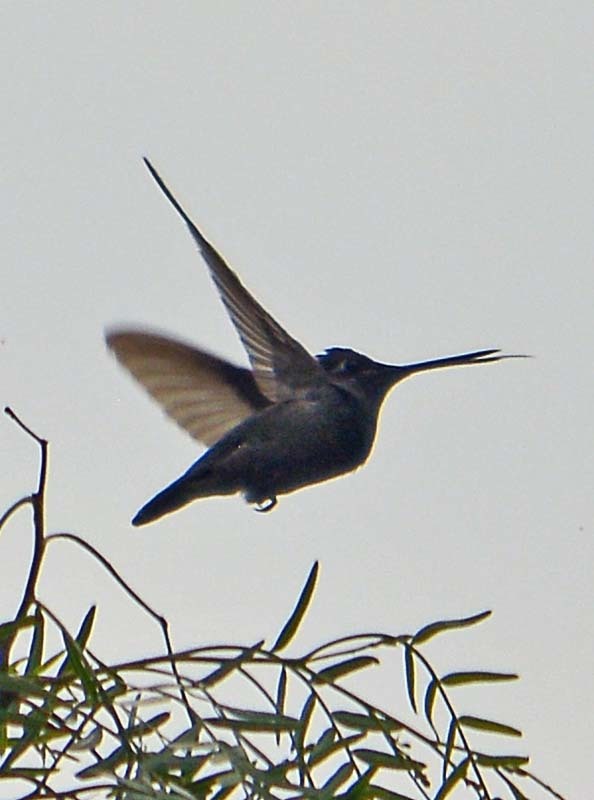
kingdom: Animalia
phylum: Chordata
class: Aves
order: Apodiformes
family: Trochilidae
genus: Eugenes
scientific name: Eugenes fulgens
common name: Magnificent hummingbird
